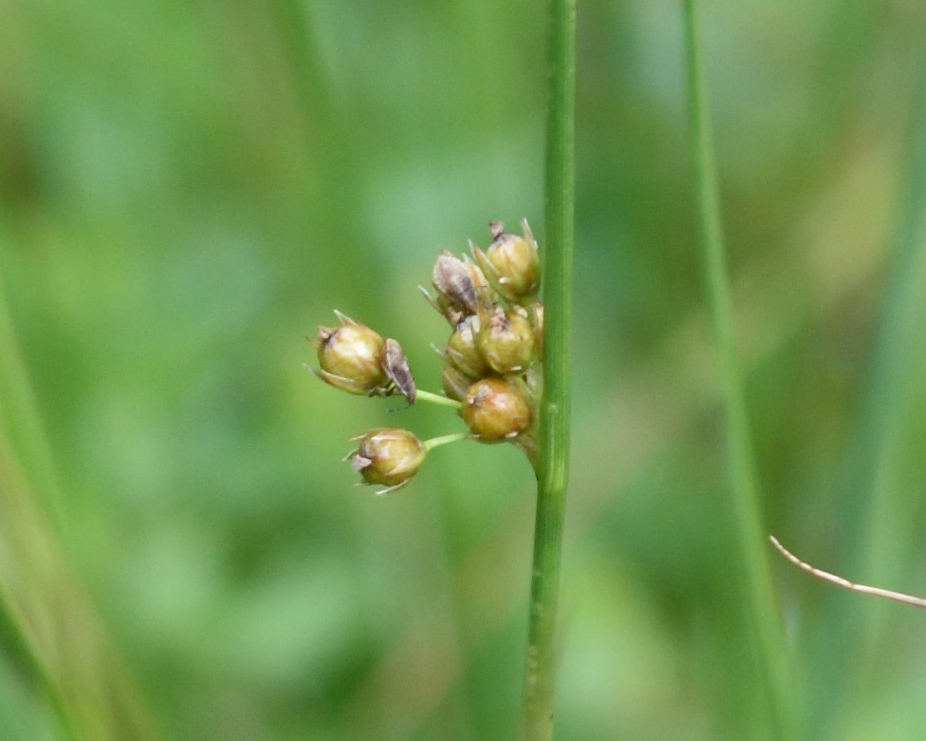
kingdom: Plantae
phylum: Tracheophyta
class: Liliopsida
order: Poales
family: Juncaceae
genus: Juncus
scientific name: Juncus filiformis
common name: Thread rush
